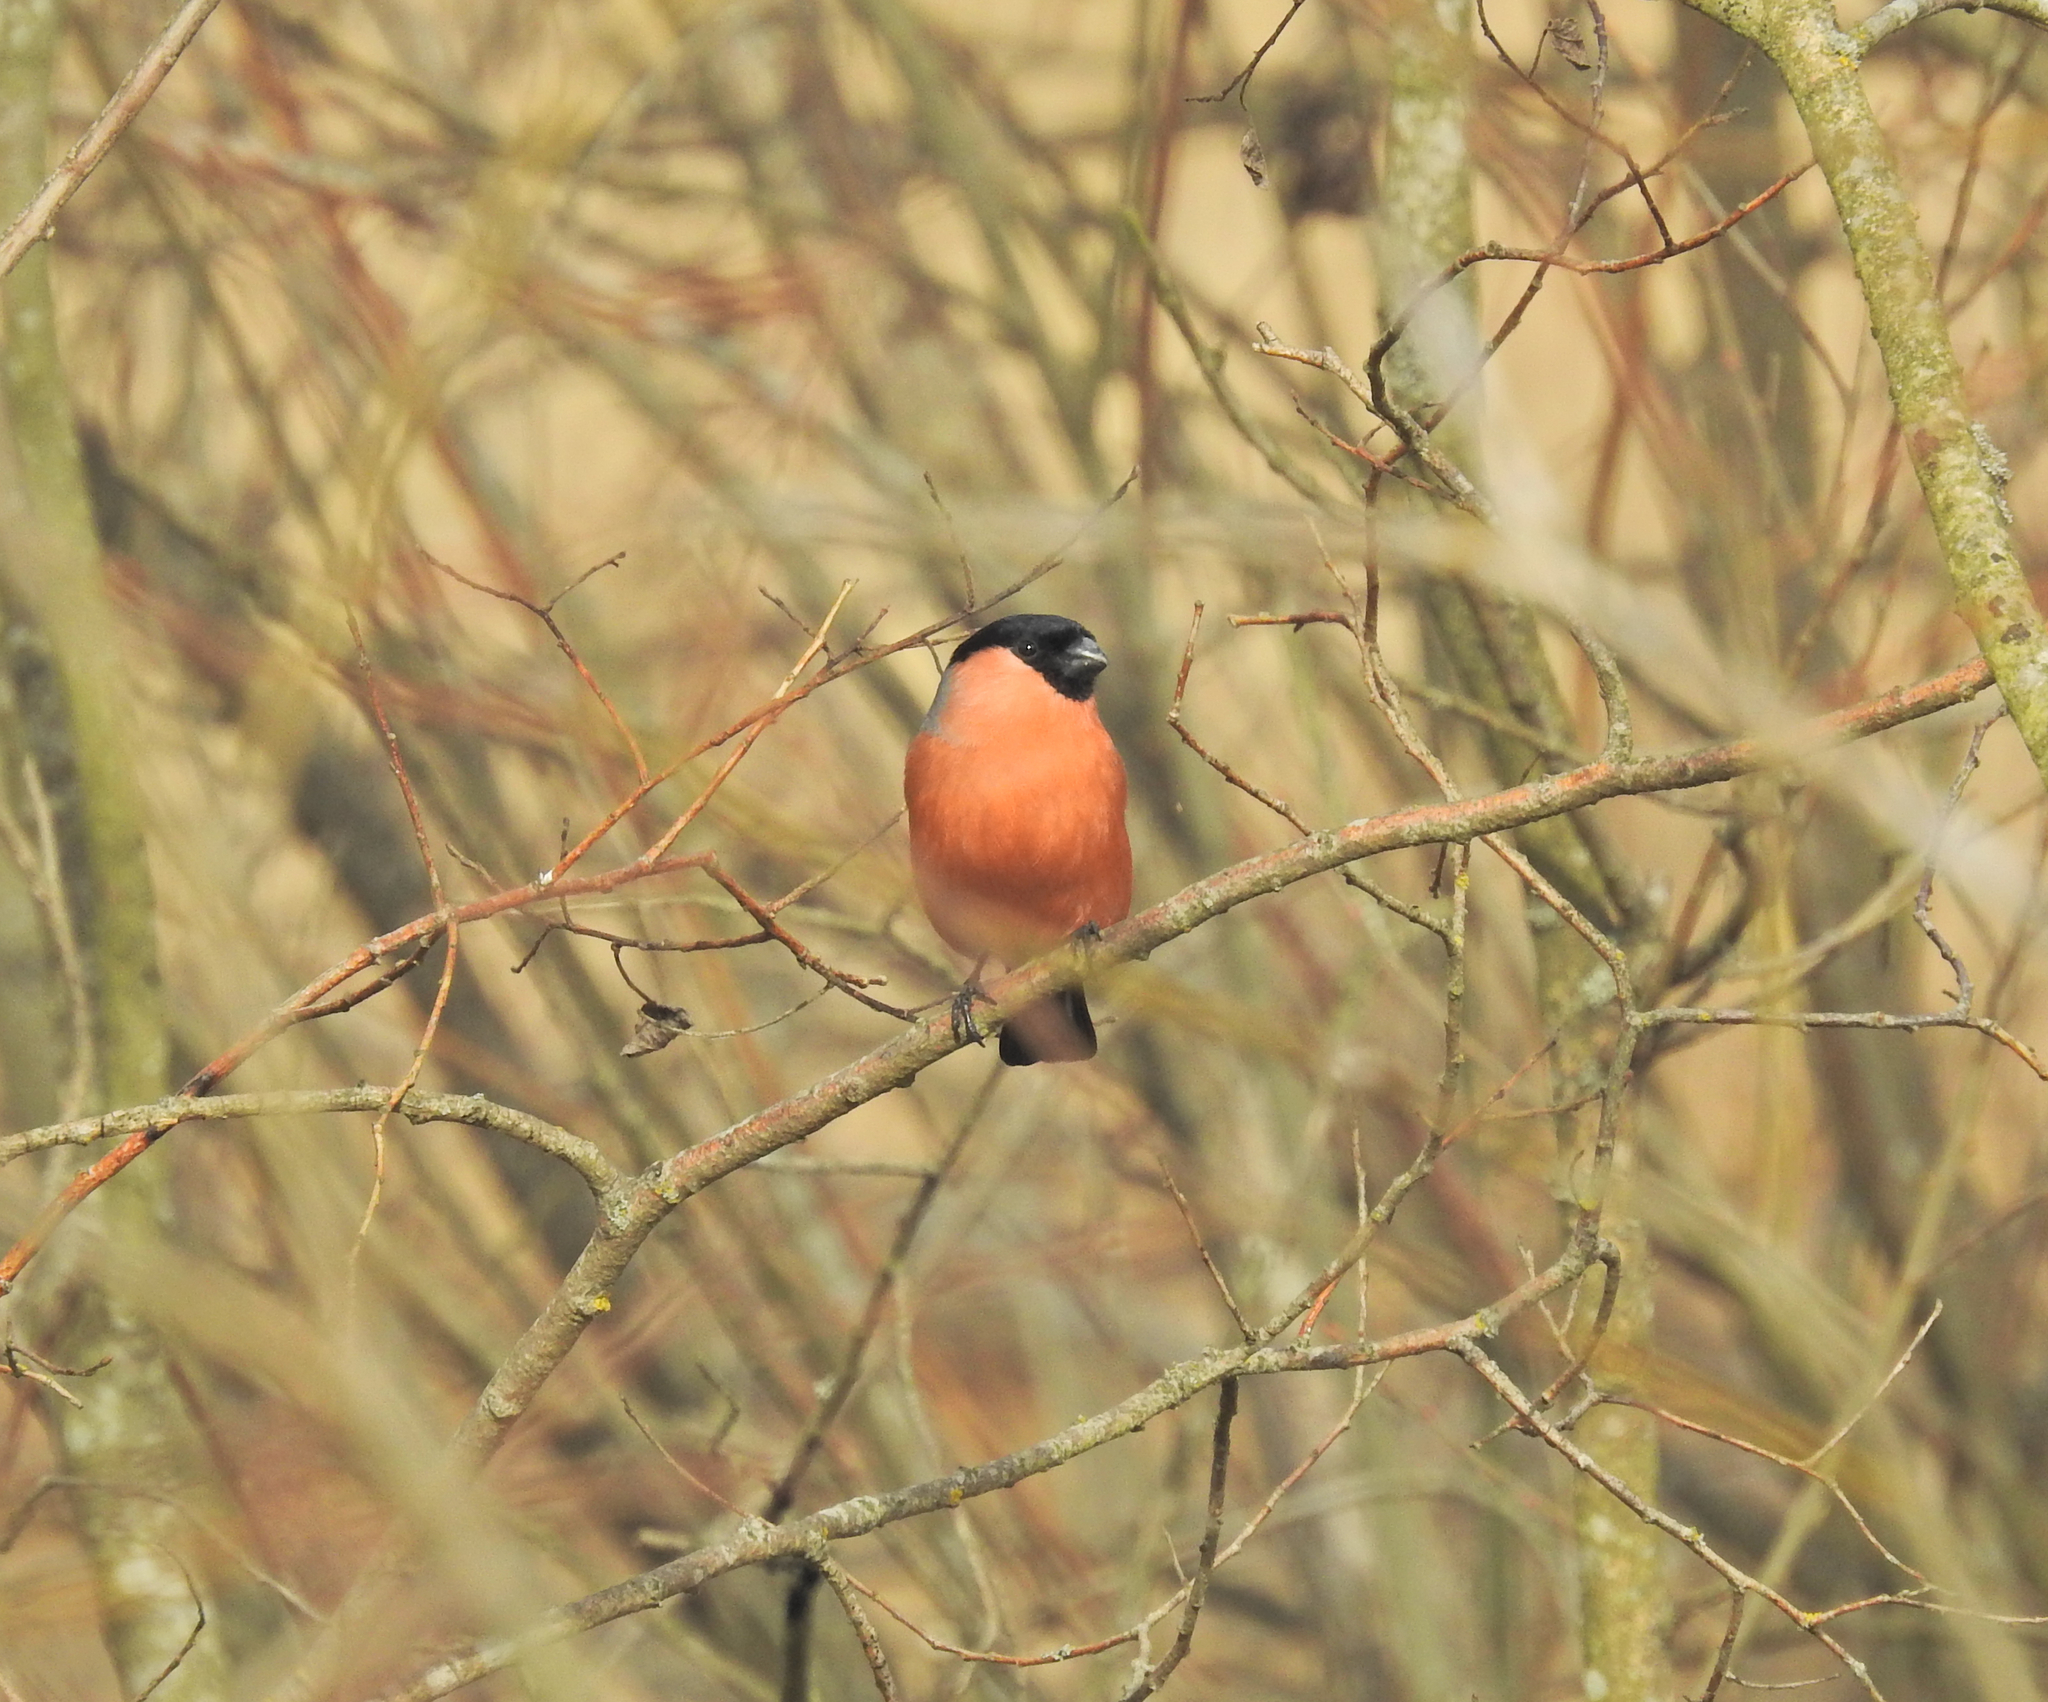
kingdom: Animalia
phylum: Chordata
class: Aves
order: Passeriformes
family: Fringillidae
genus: Pyrrhula
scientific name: Pyrrhula pyrrhula
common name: Eurasian bullfinch
